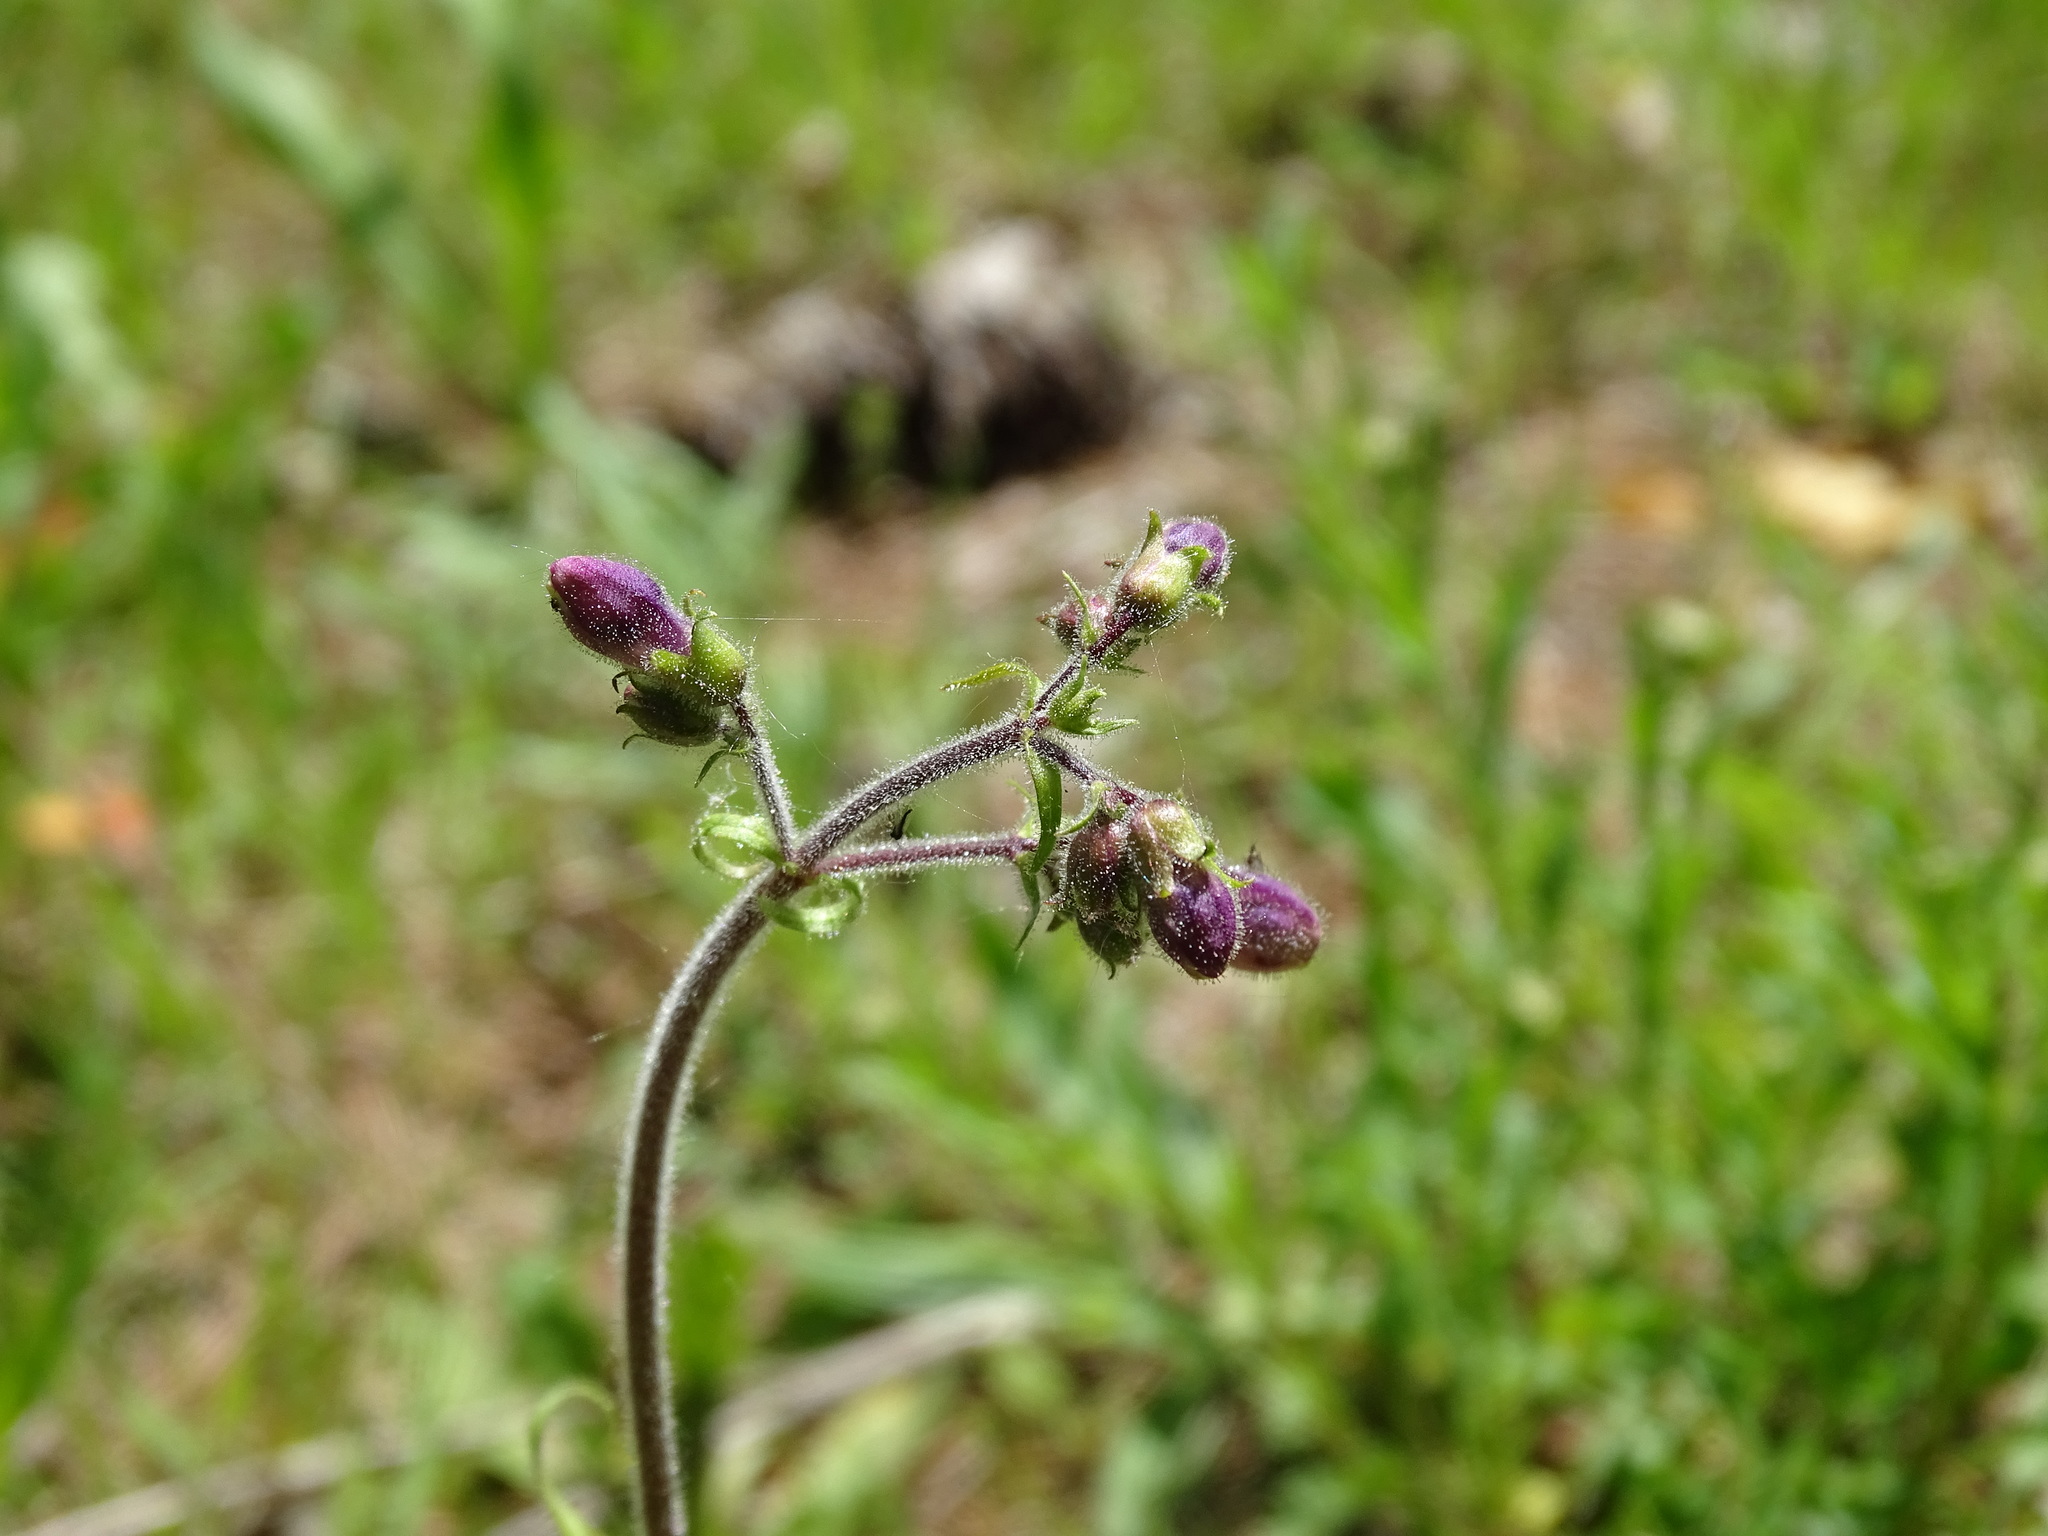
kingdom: Plantae
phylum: Tracheophyta
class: Magnoliopsida
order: Lamiales
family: Plantaginaceae
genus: Penstemon
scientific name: Penstemon hirsutus
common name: Hairy beardtongue
